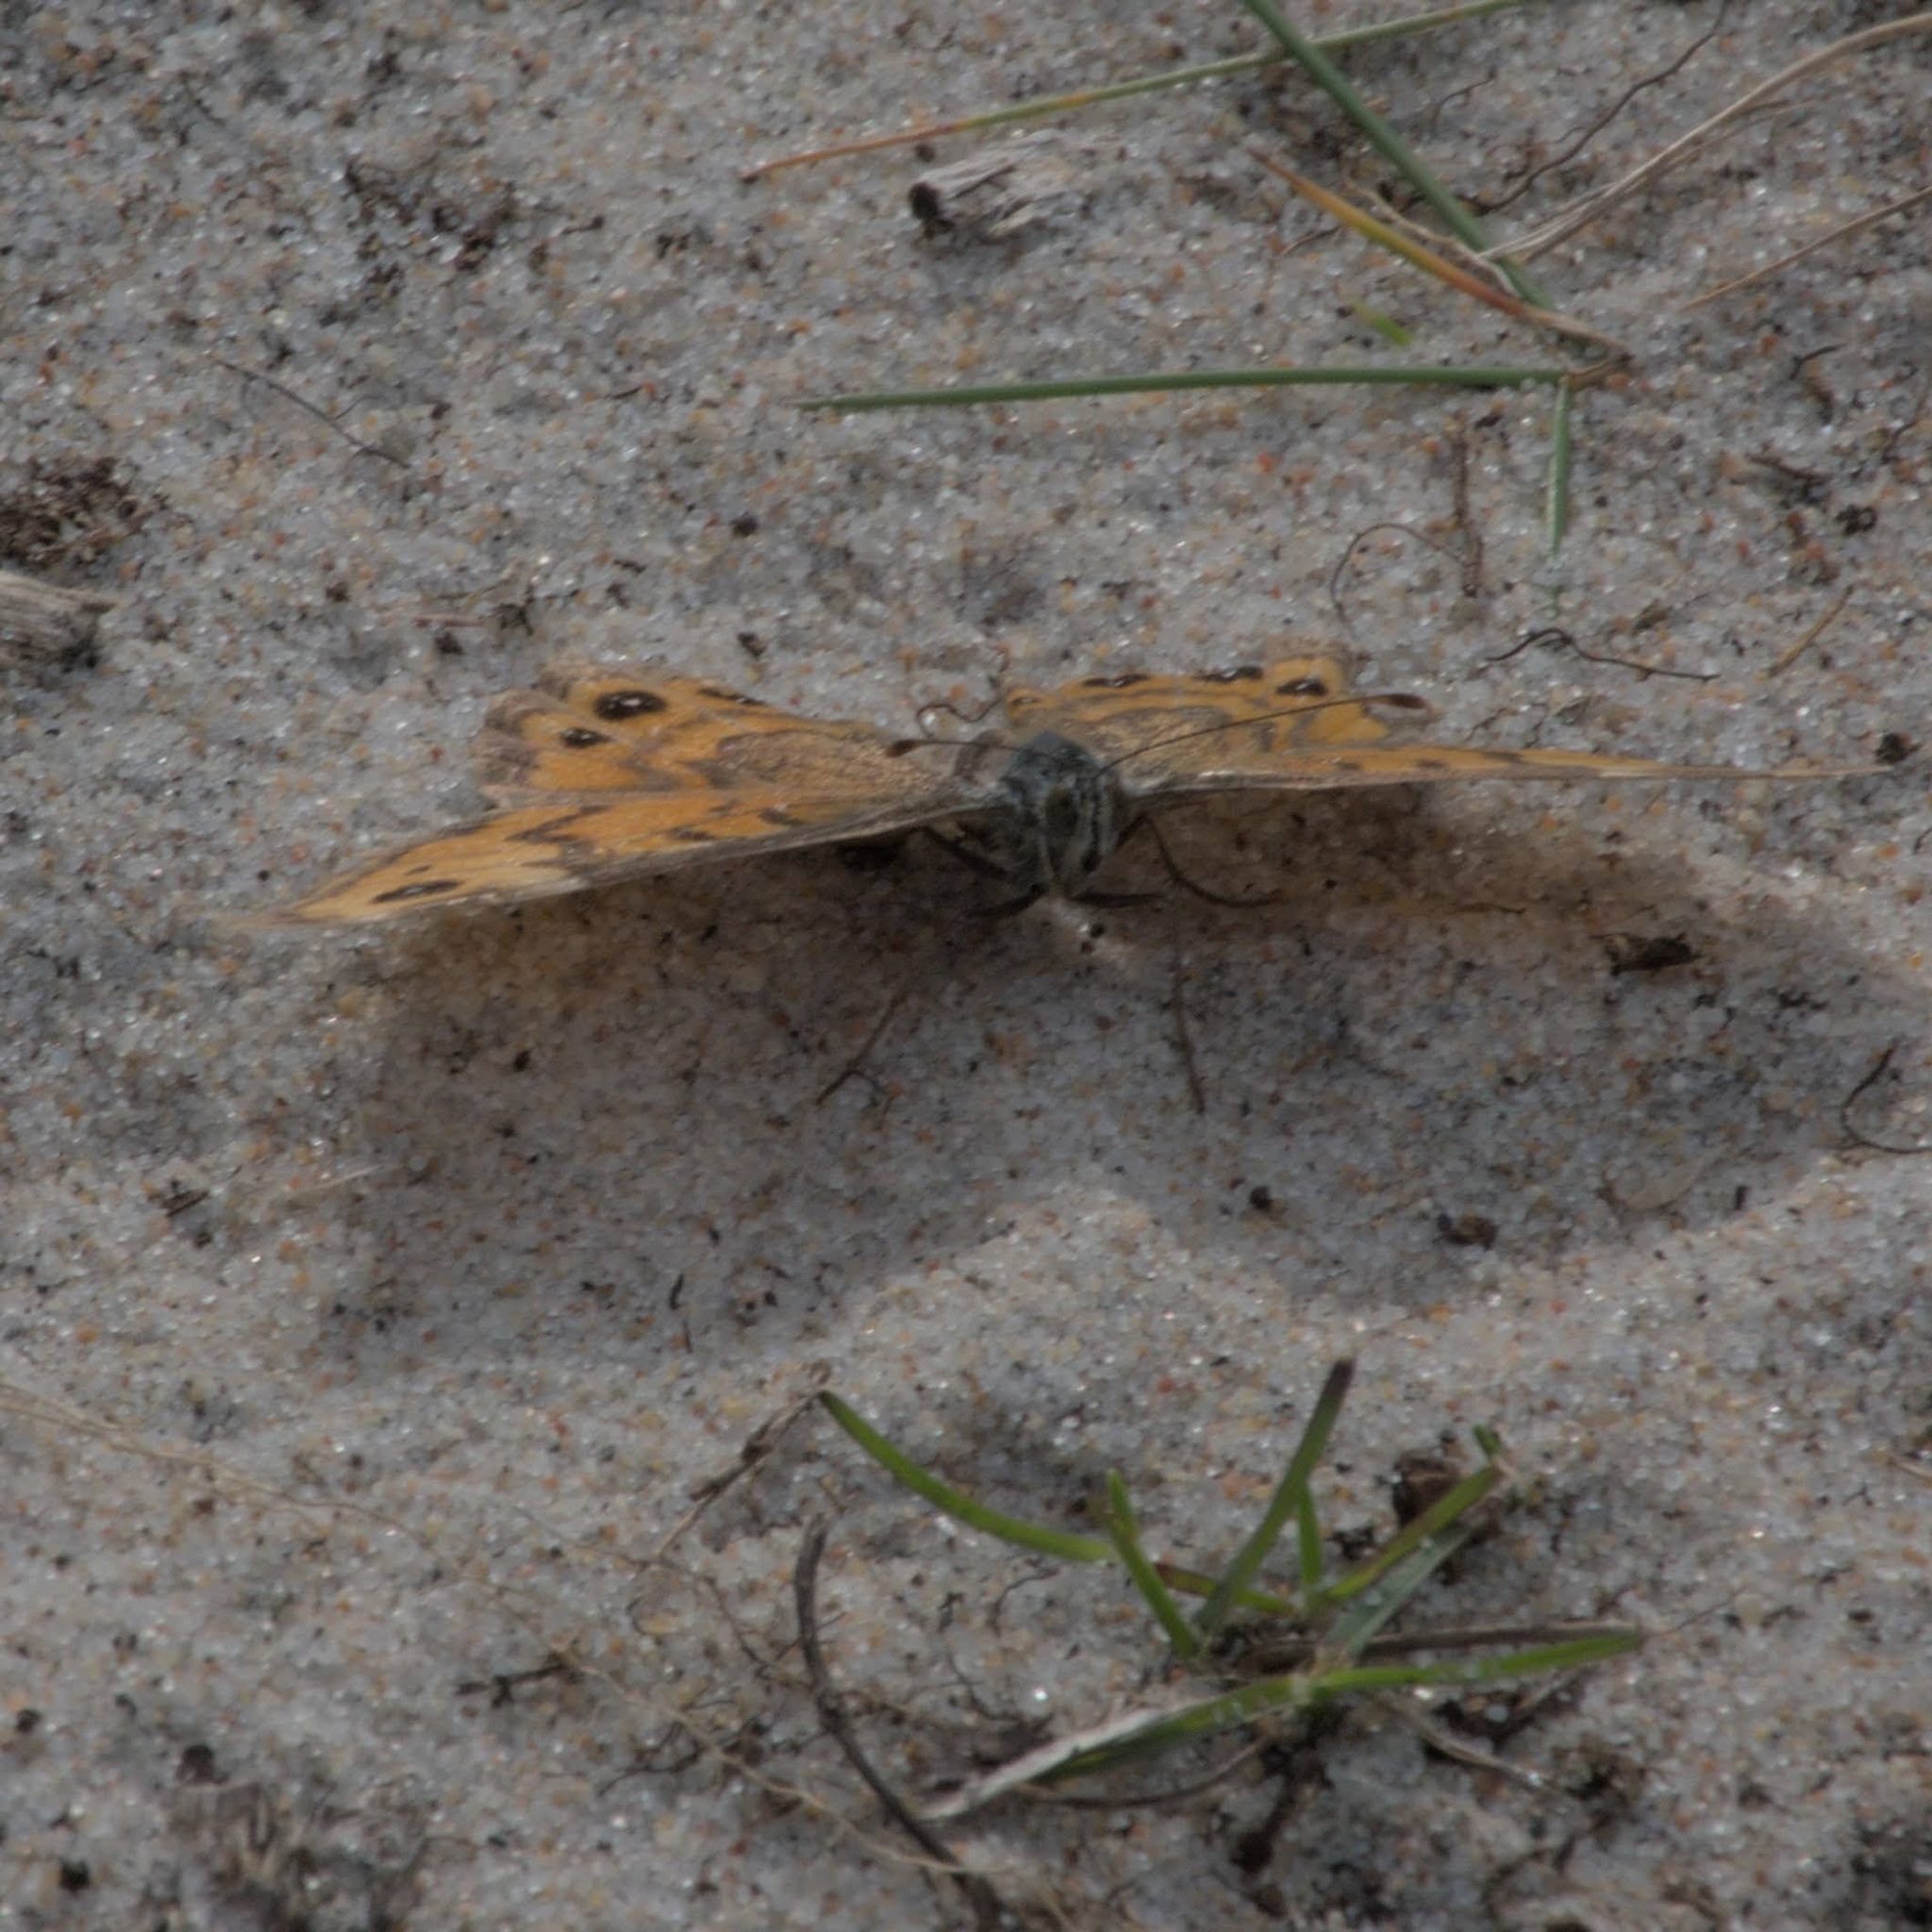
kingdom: Animalia
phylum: Arthropoda
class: Insecta
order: Lepidoptera
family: Nymphalidae
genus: Pararge
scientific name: Pararge Lasiommata megera
